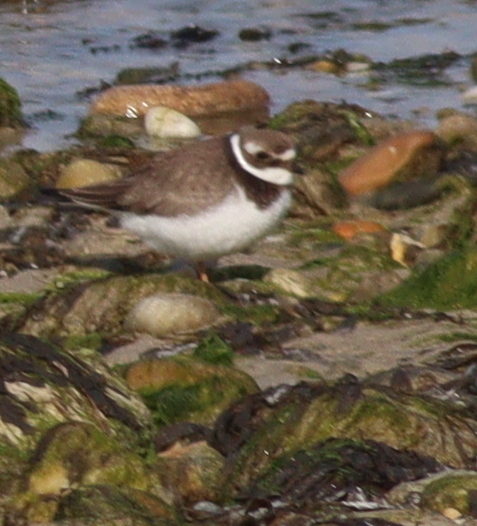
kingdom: Animalia
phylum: Chordata
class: Aves
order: Charadriiformes
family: Charadriidae
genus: Charadrius
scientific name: Charadrius hiaticula
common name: Common ringed plover
